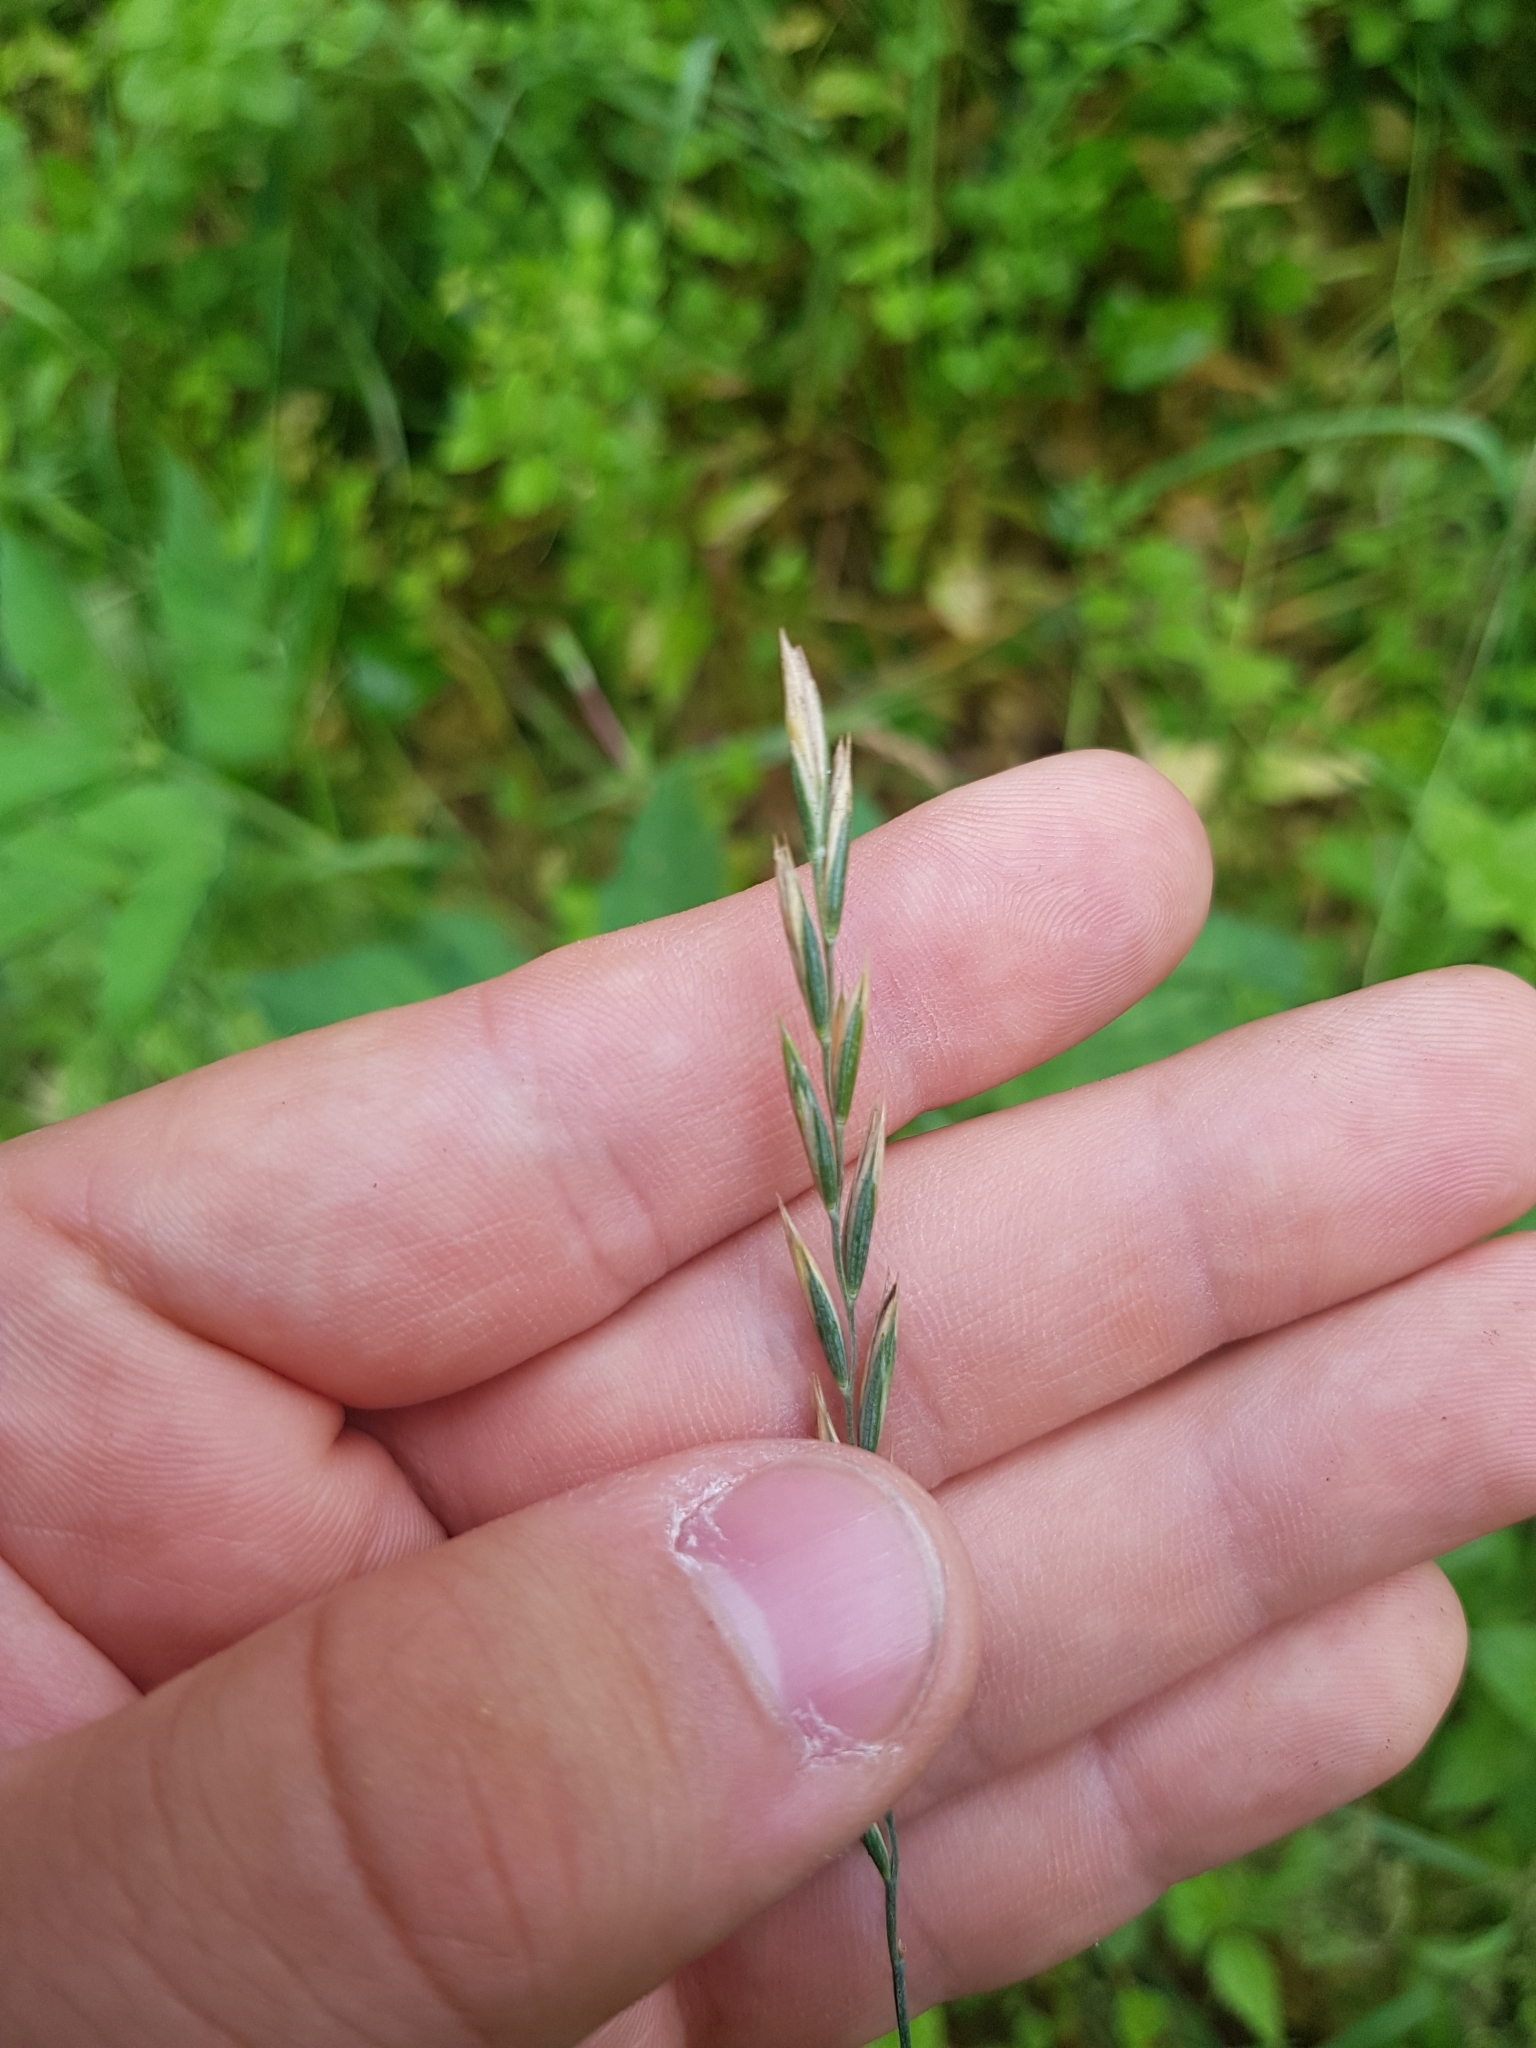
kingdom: Plantae
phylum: Tracheophyta
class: Liliopsida
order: Poales
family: Poaceae
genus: Elymus
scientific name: Elymus repens
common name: Quackgrass
